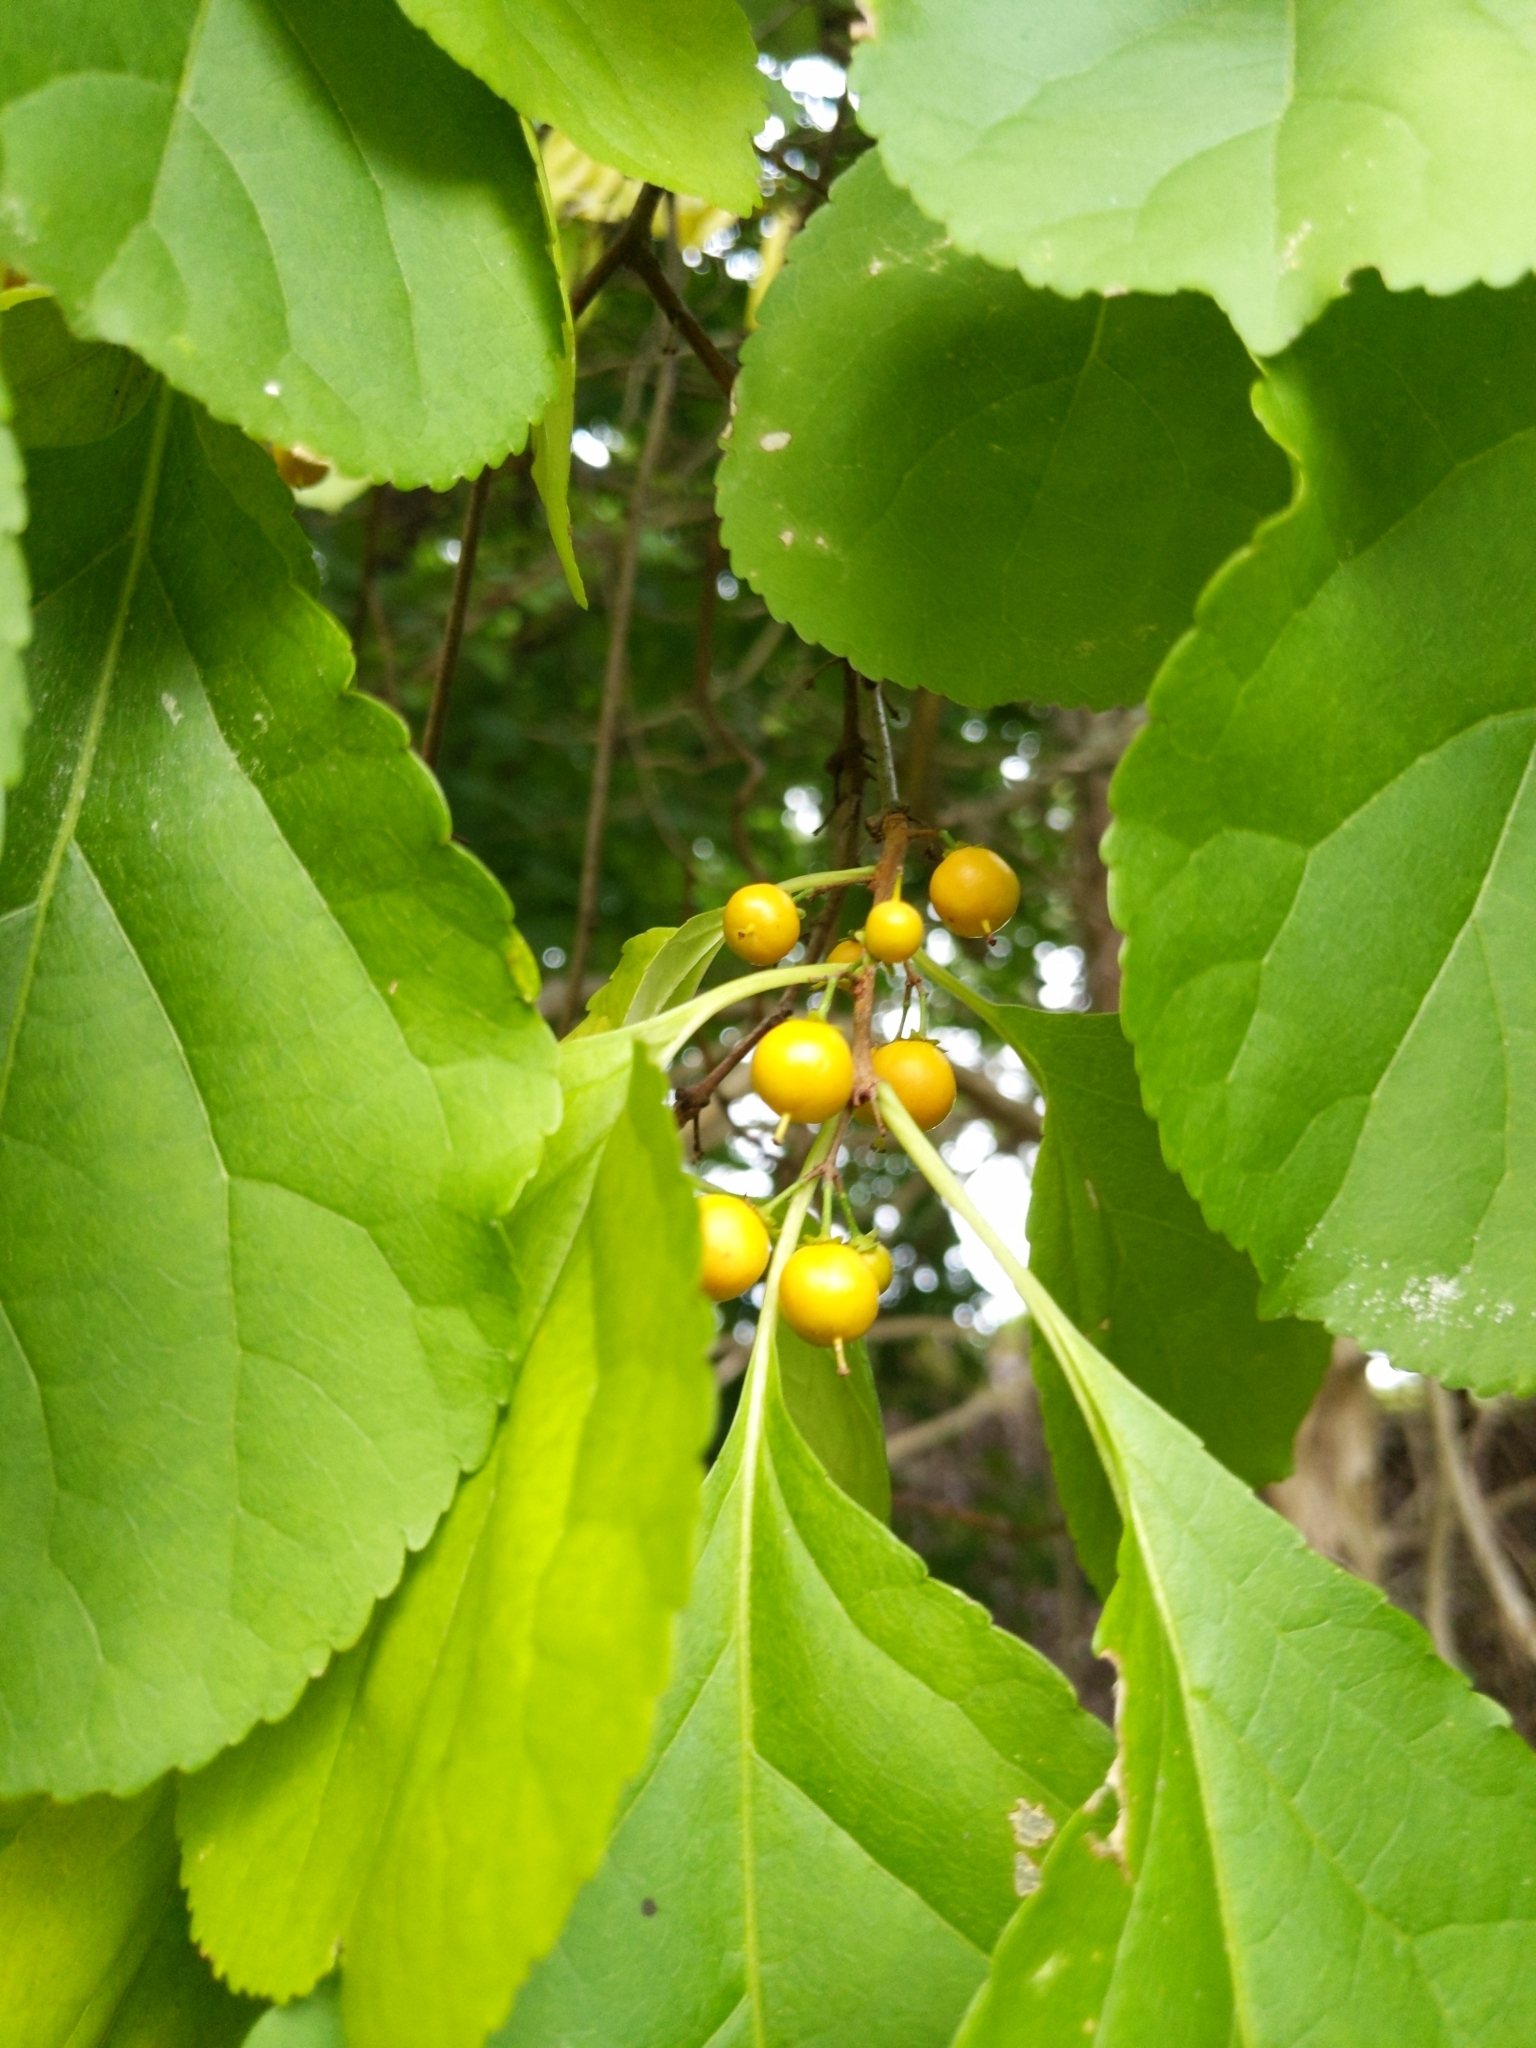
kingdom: Plantae
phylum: Tracheophyta
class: Magnoliopsida
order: Celastrales
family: Celastraceae
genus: Celastrus
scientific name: Celastrus orbiculatus
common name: Oriental bittersweet
